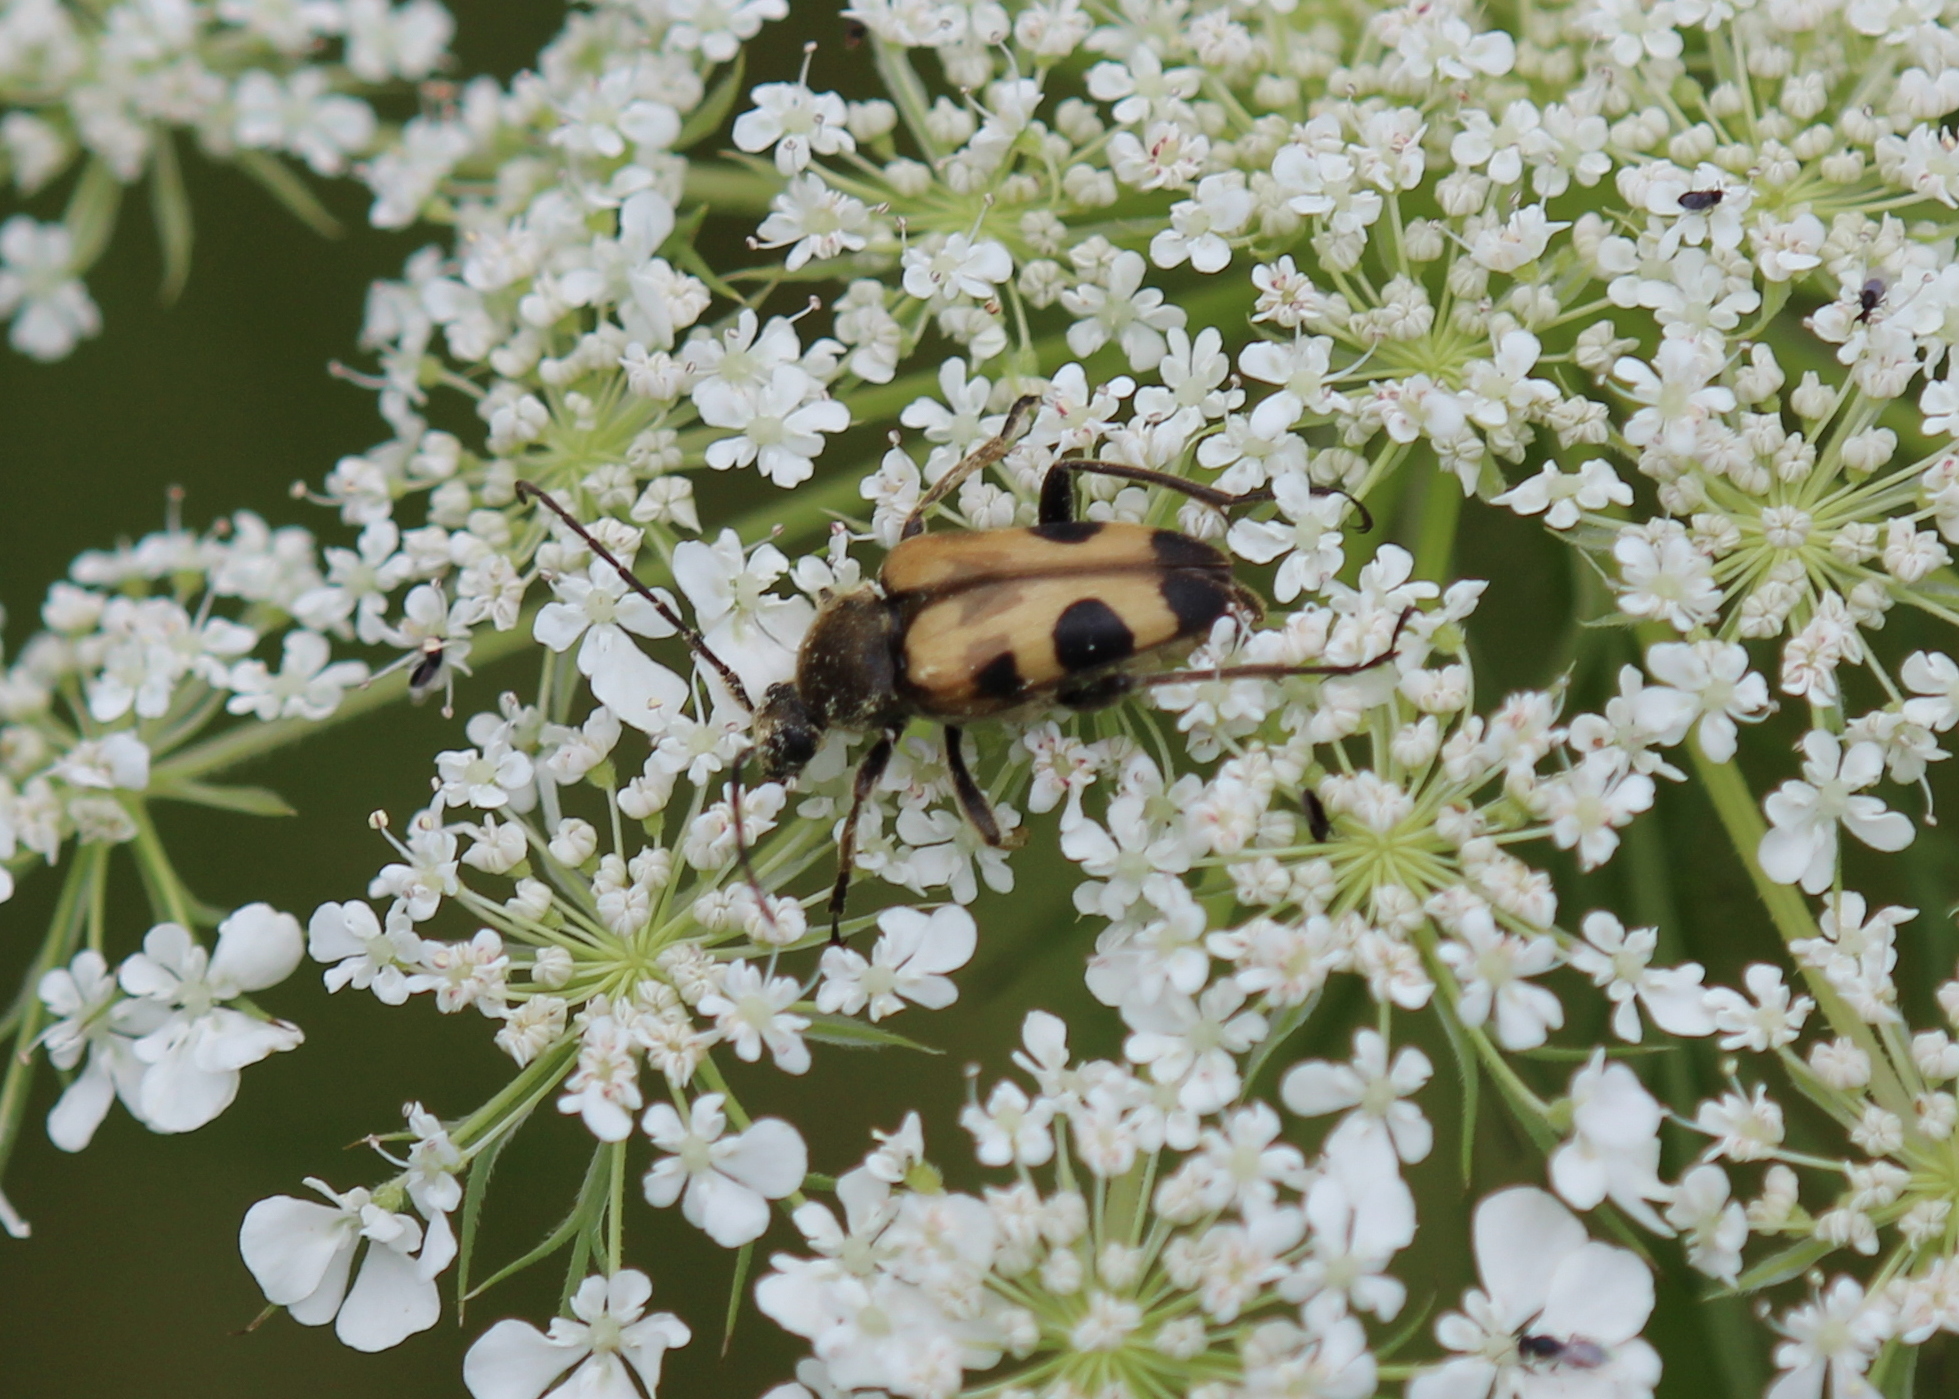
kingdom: Animalia
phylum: Arthropoda
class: Insecta
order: Coleoptera
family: Cerambycidae
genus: Judolia
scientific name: Judolia cordifera
